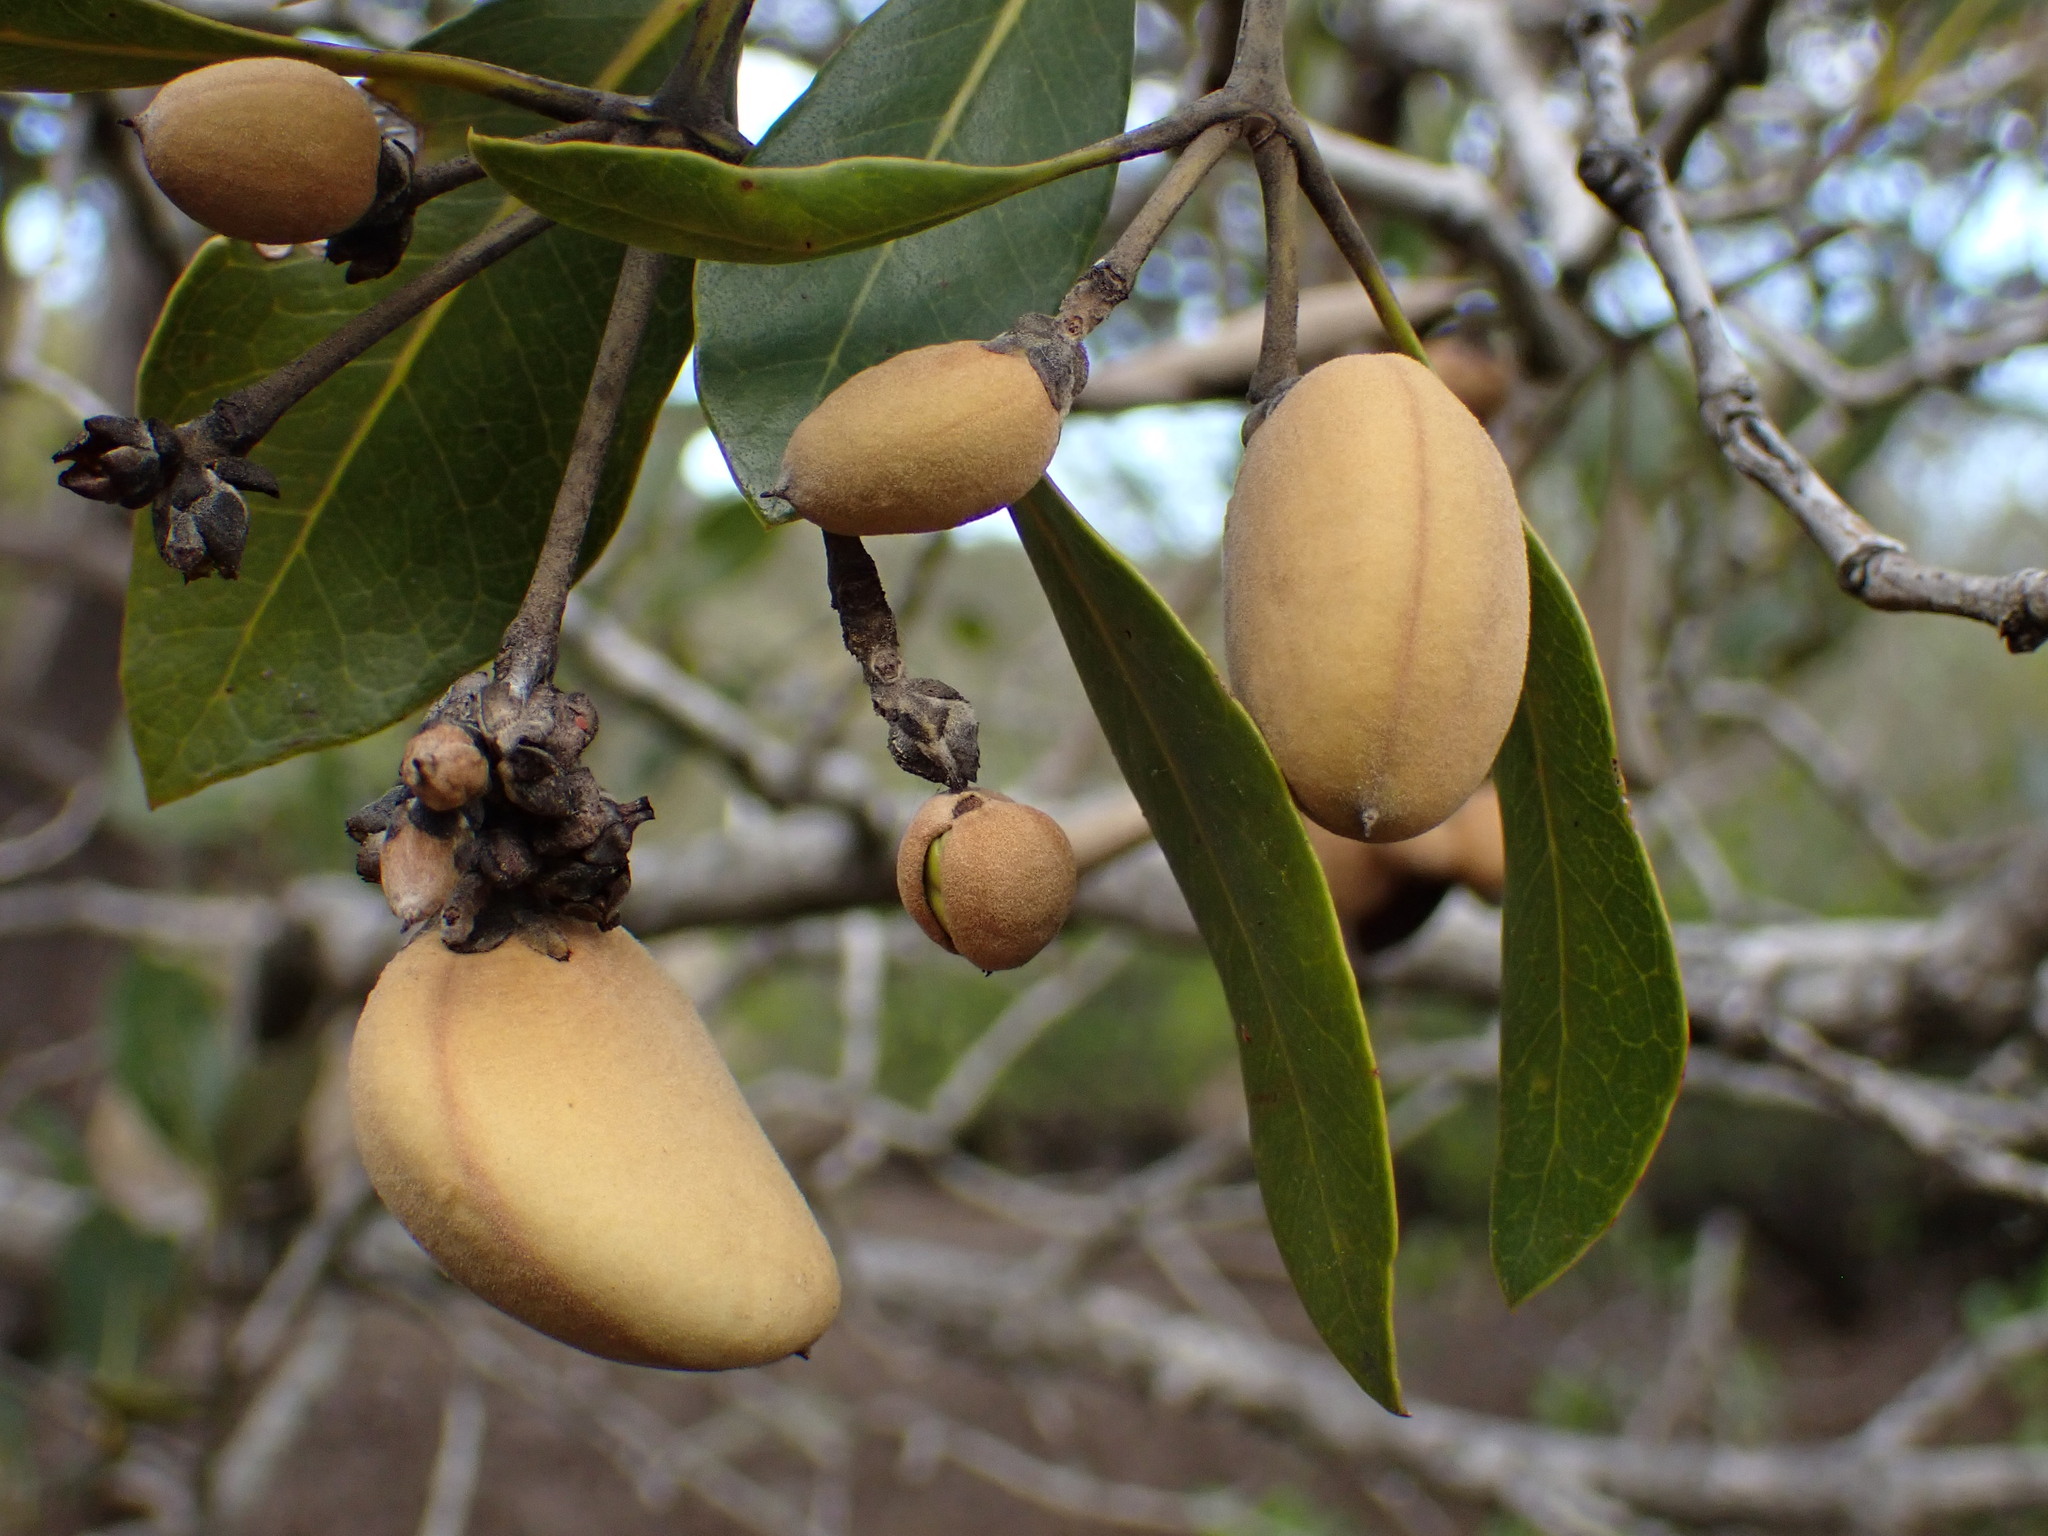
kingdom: Plantae
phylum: Tracheophyta
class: Magnoliopsida
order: Lamiales
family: Acanthaceae
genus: Avicennia
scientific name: Avicennia marina
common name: Gray mangrove
